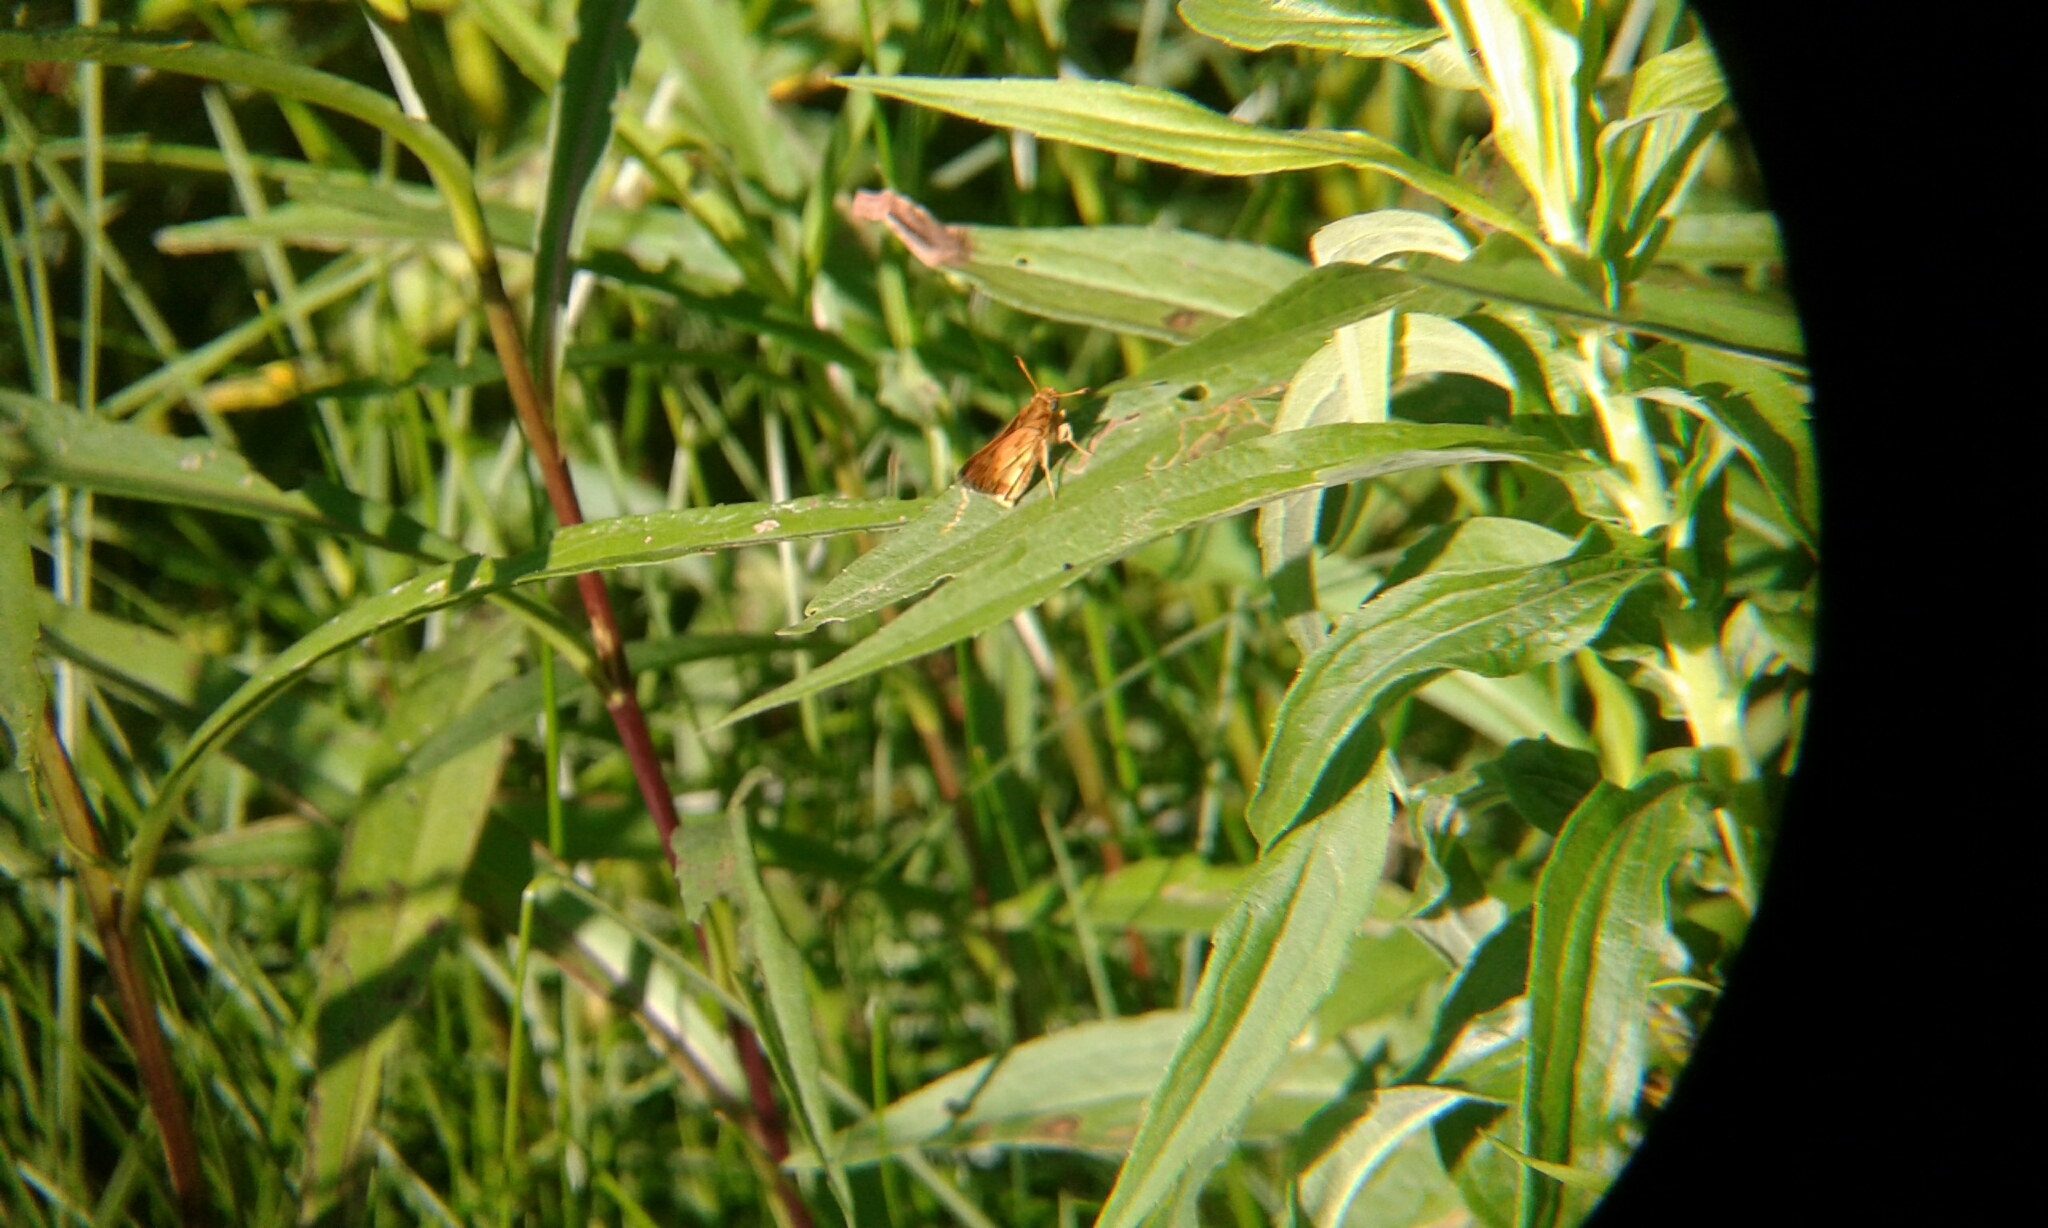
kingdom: Animalia
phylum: Arthropoda
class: Insecta
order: Lepidoptera
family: Hesperiidae
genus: Polites
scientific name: Polites coras
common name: Peck's skipper
